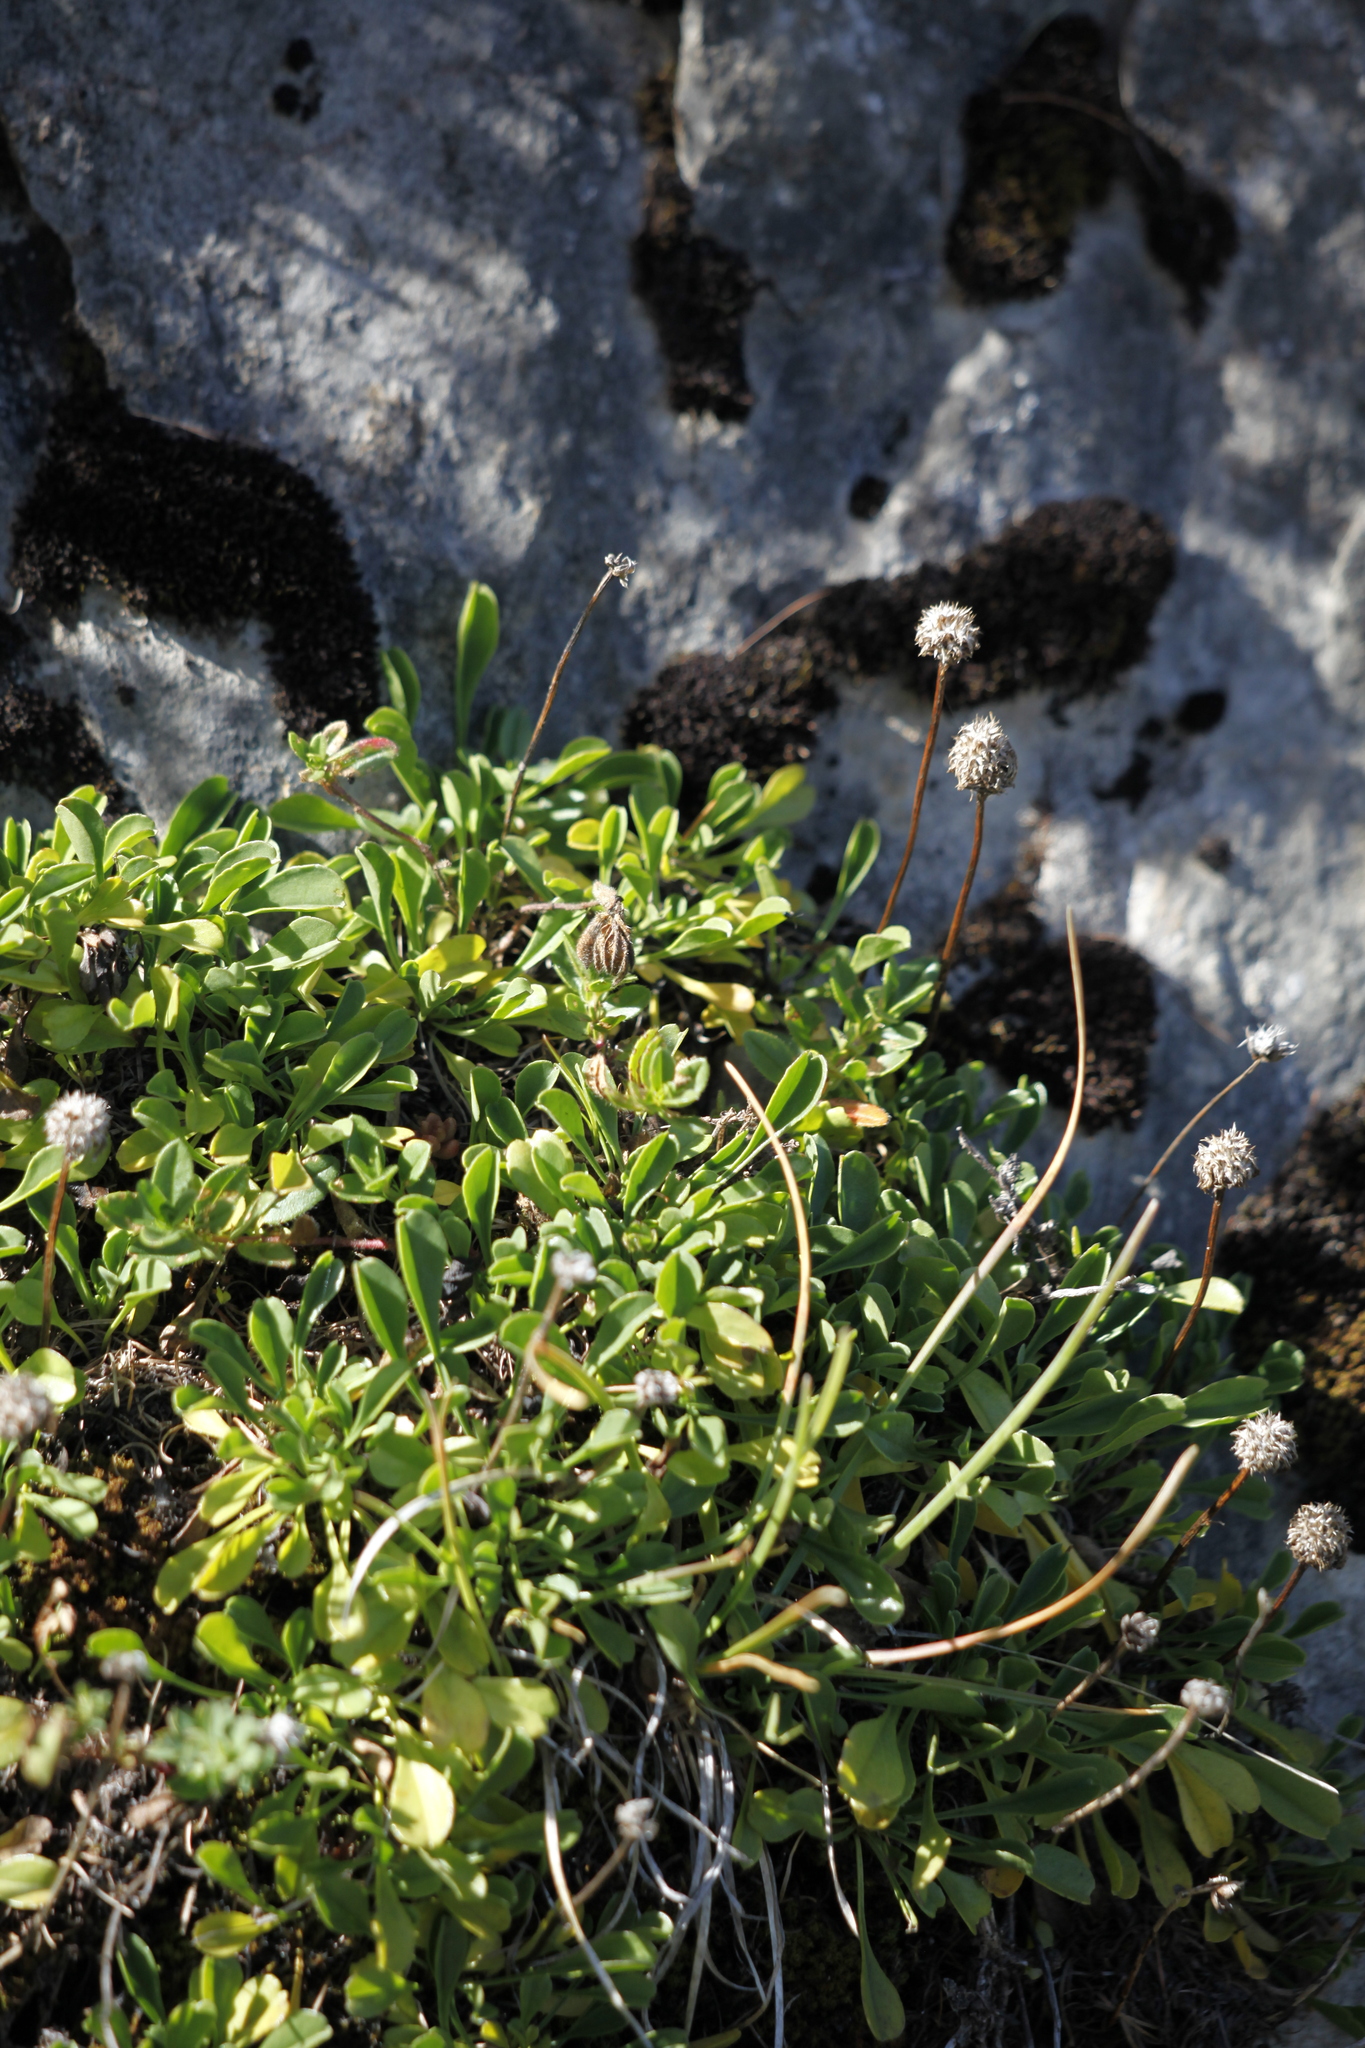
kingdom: Plantae
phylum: Tracheophyta
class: Magnoliopsida
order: Lamiales
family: Plantaginaceae
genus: Globularia
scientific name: Globularia cordifolia
